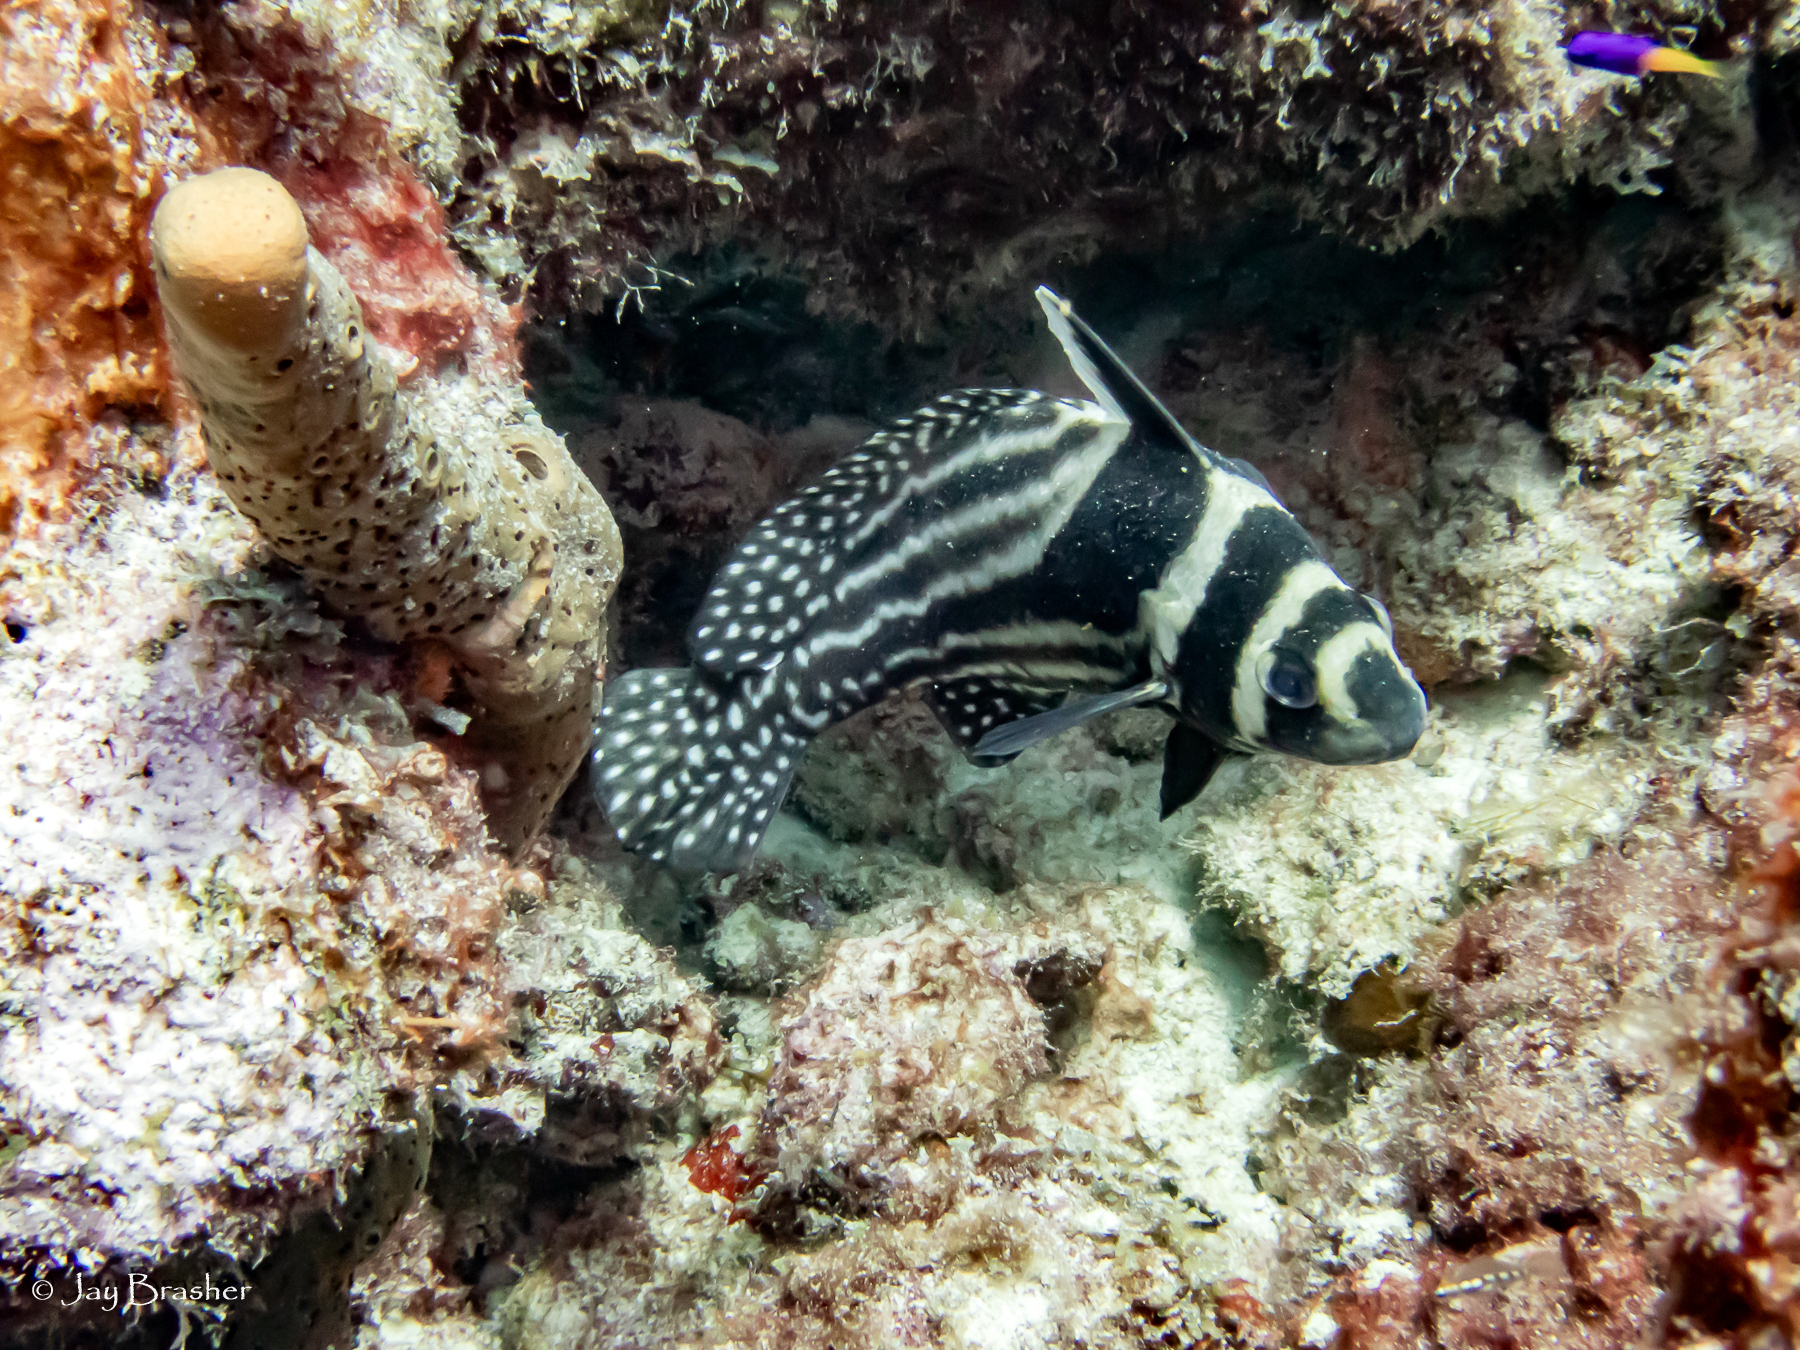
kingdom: Animalia
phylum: Chordata
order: Perciformes
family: Sciaenidae
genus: Equetus
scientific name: Equetus punctatus
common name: Spotted drum
